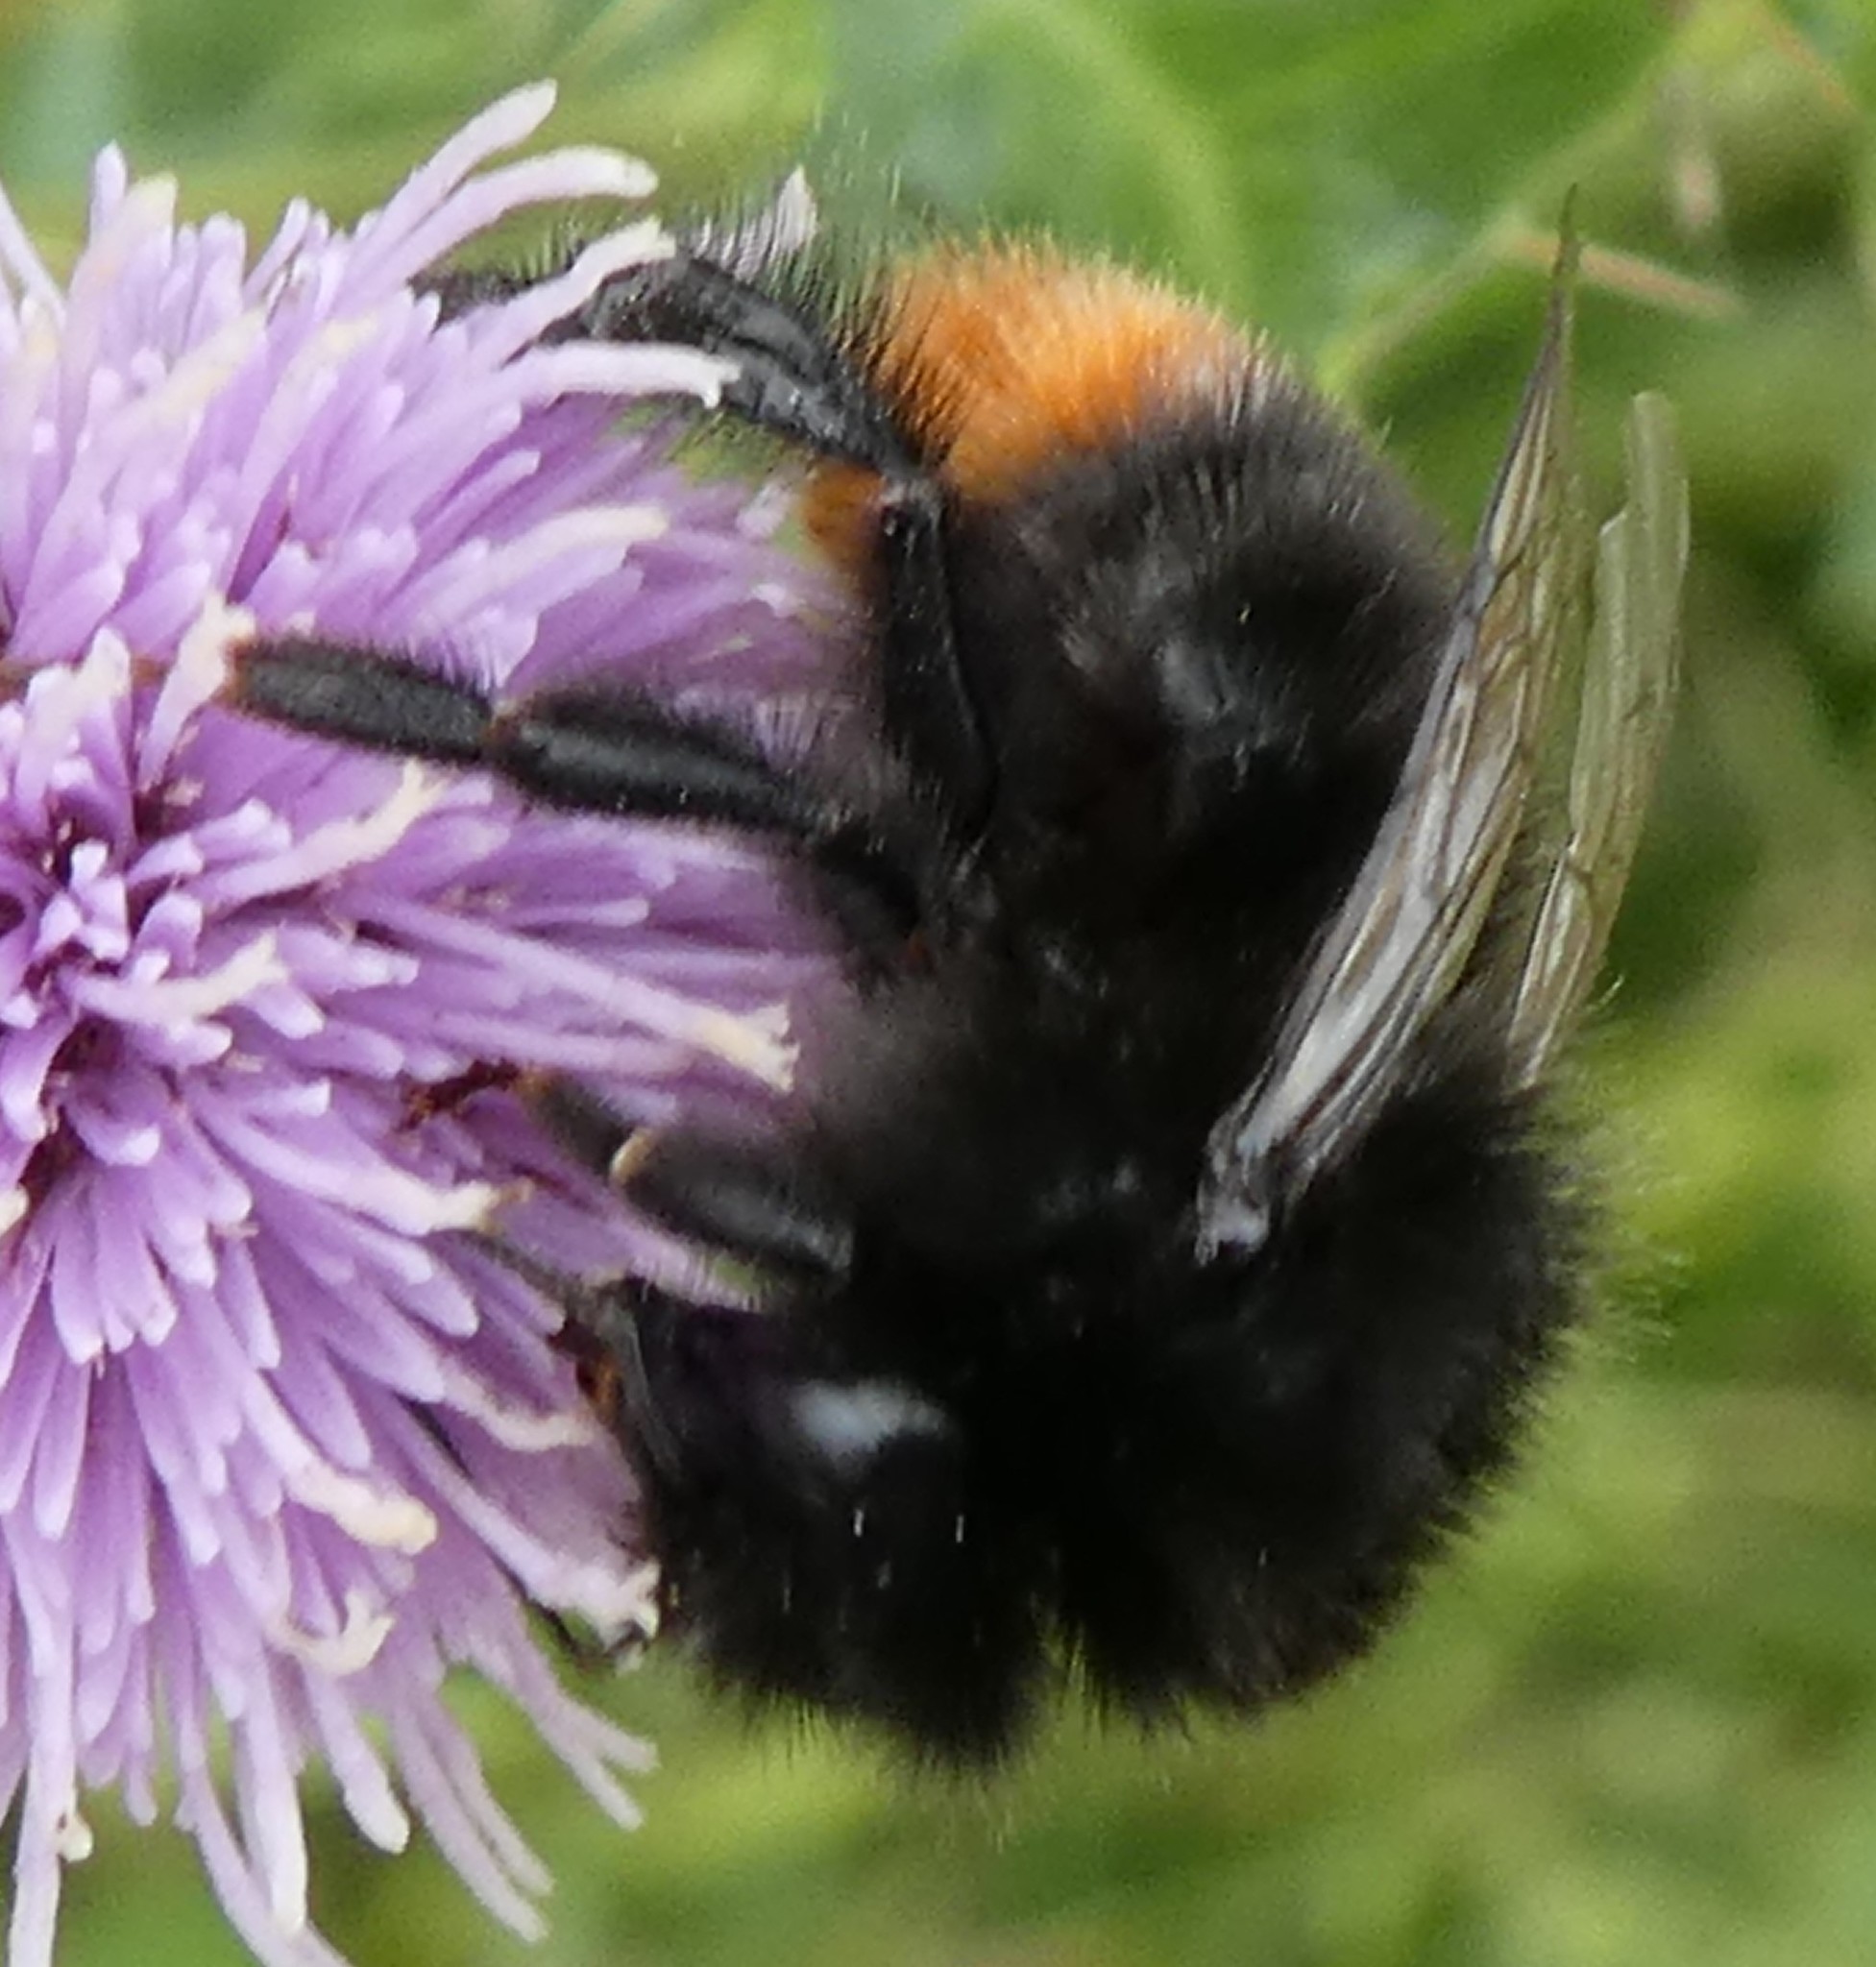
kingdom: Animalia
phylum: Arthropoda
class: Insecta
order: Hymenoptera
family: Apidae
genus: Bombus
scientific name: Bombus lapidarius
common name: Large red-tailed humble-bee
